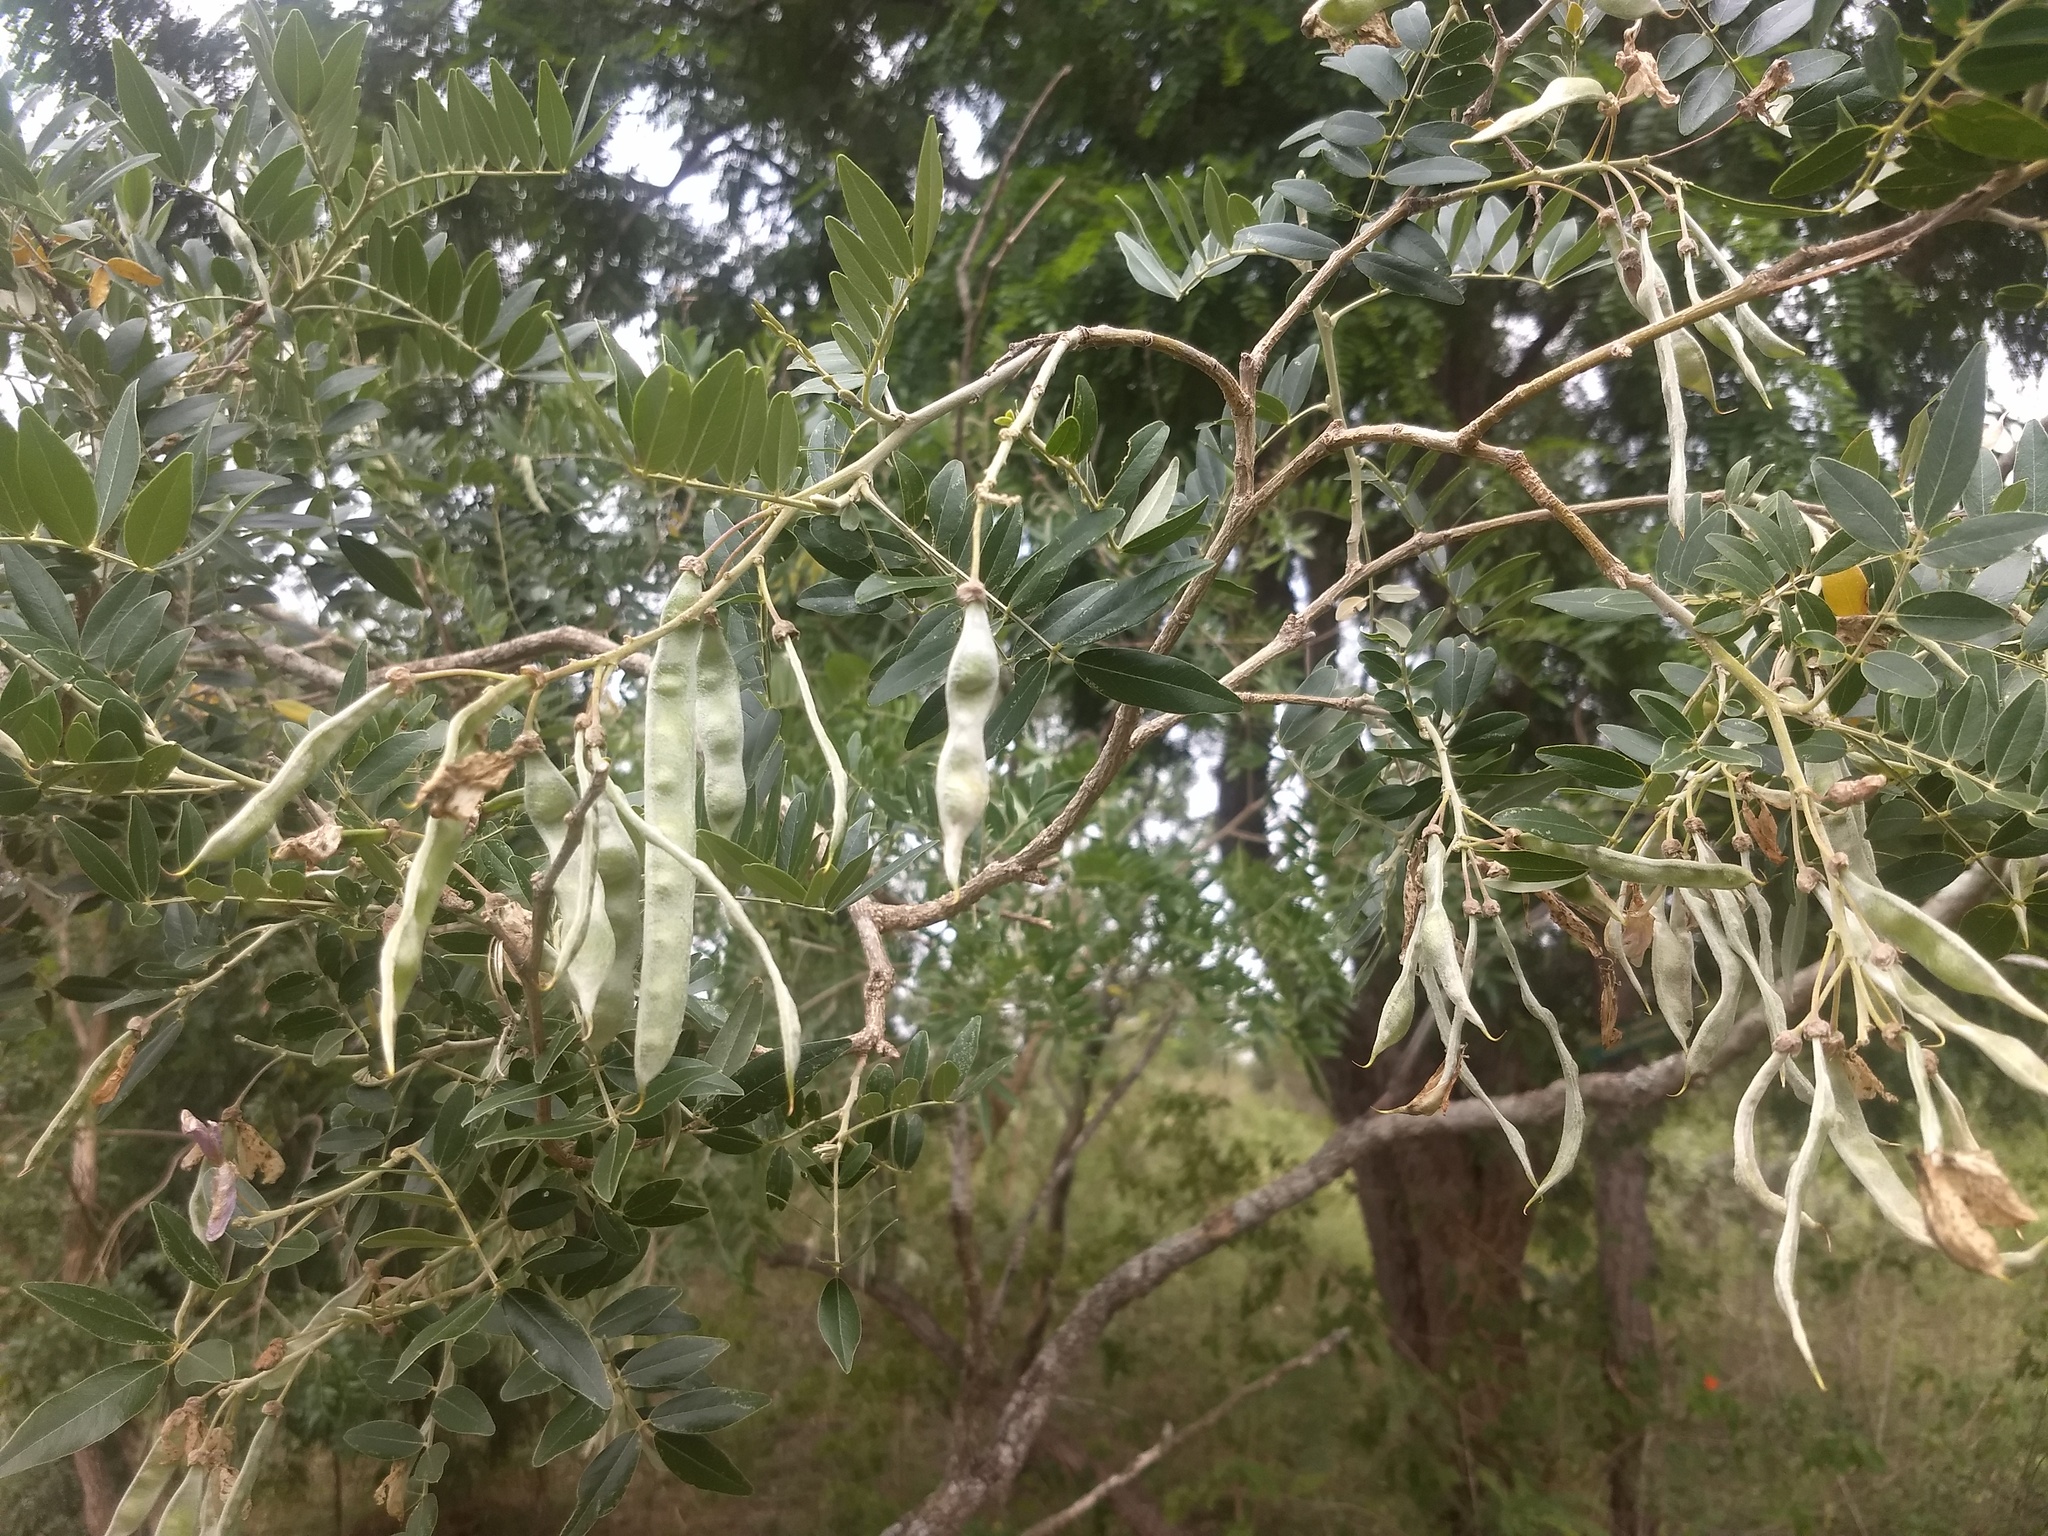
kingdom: Plantae
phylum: Tracheophyta
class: Magnoliopsida
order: Fabales
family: Fabaceae
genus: Mundulea
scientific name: Mundulea sericea
